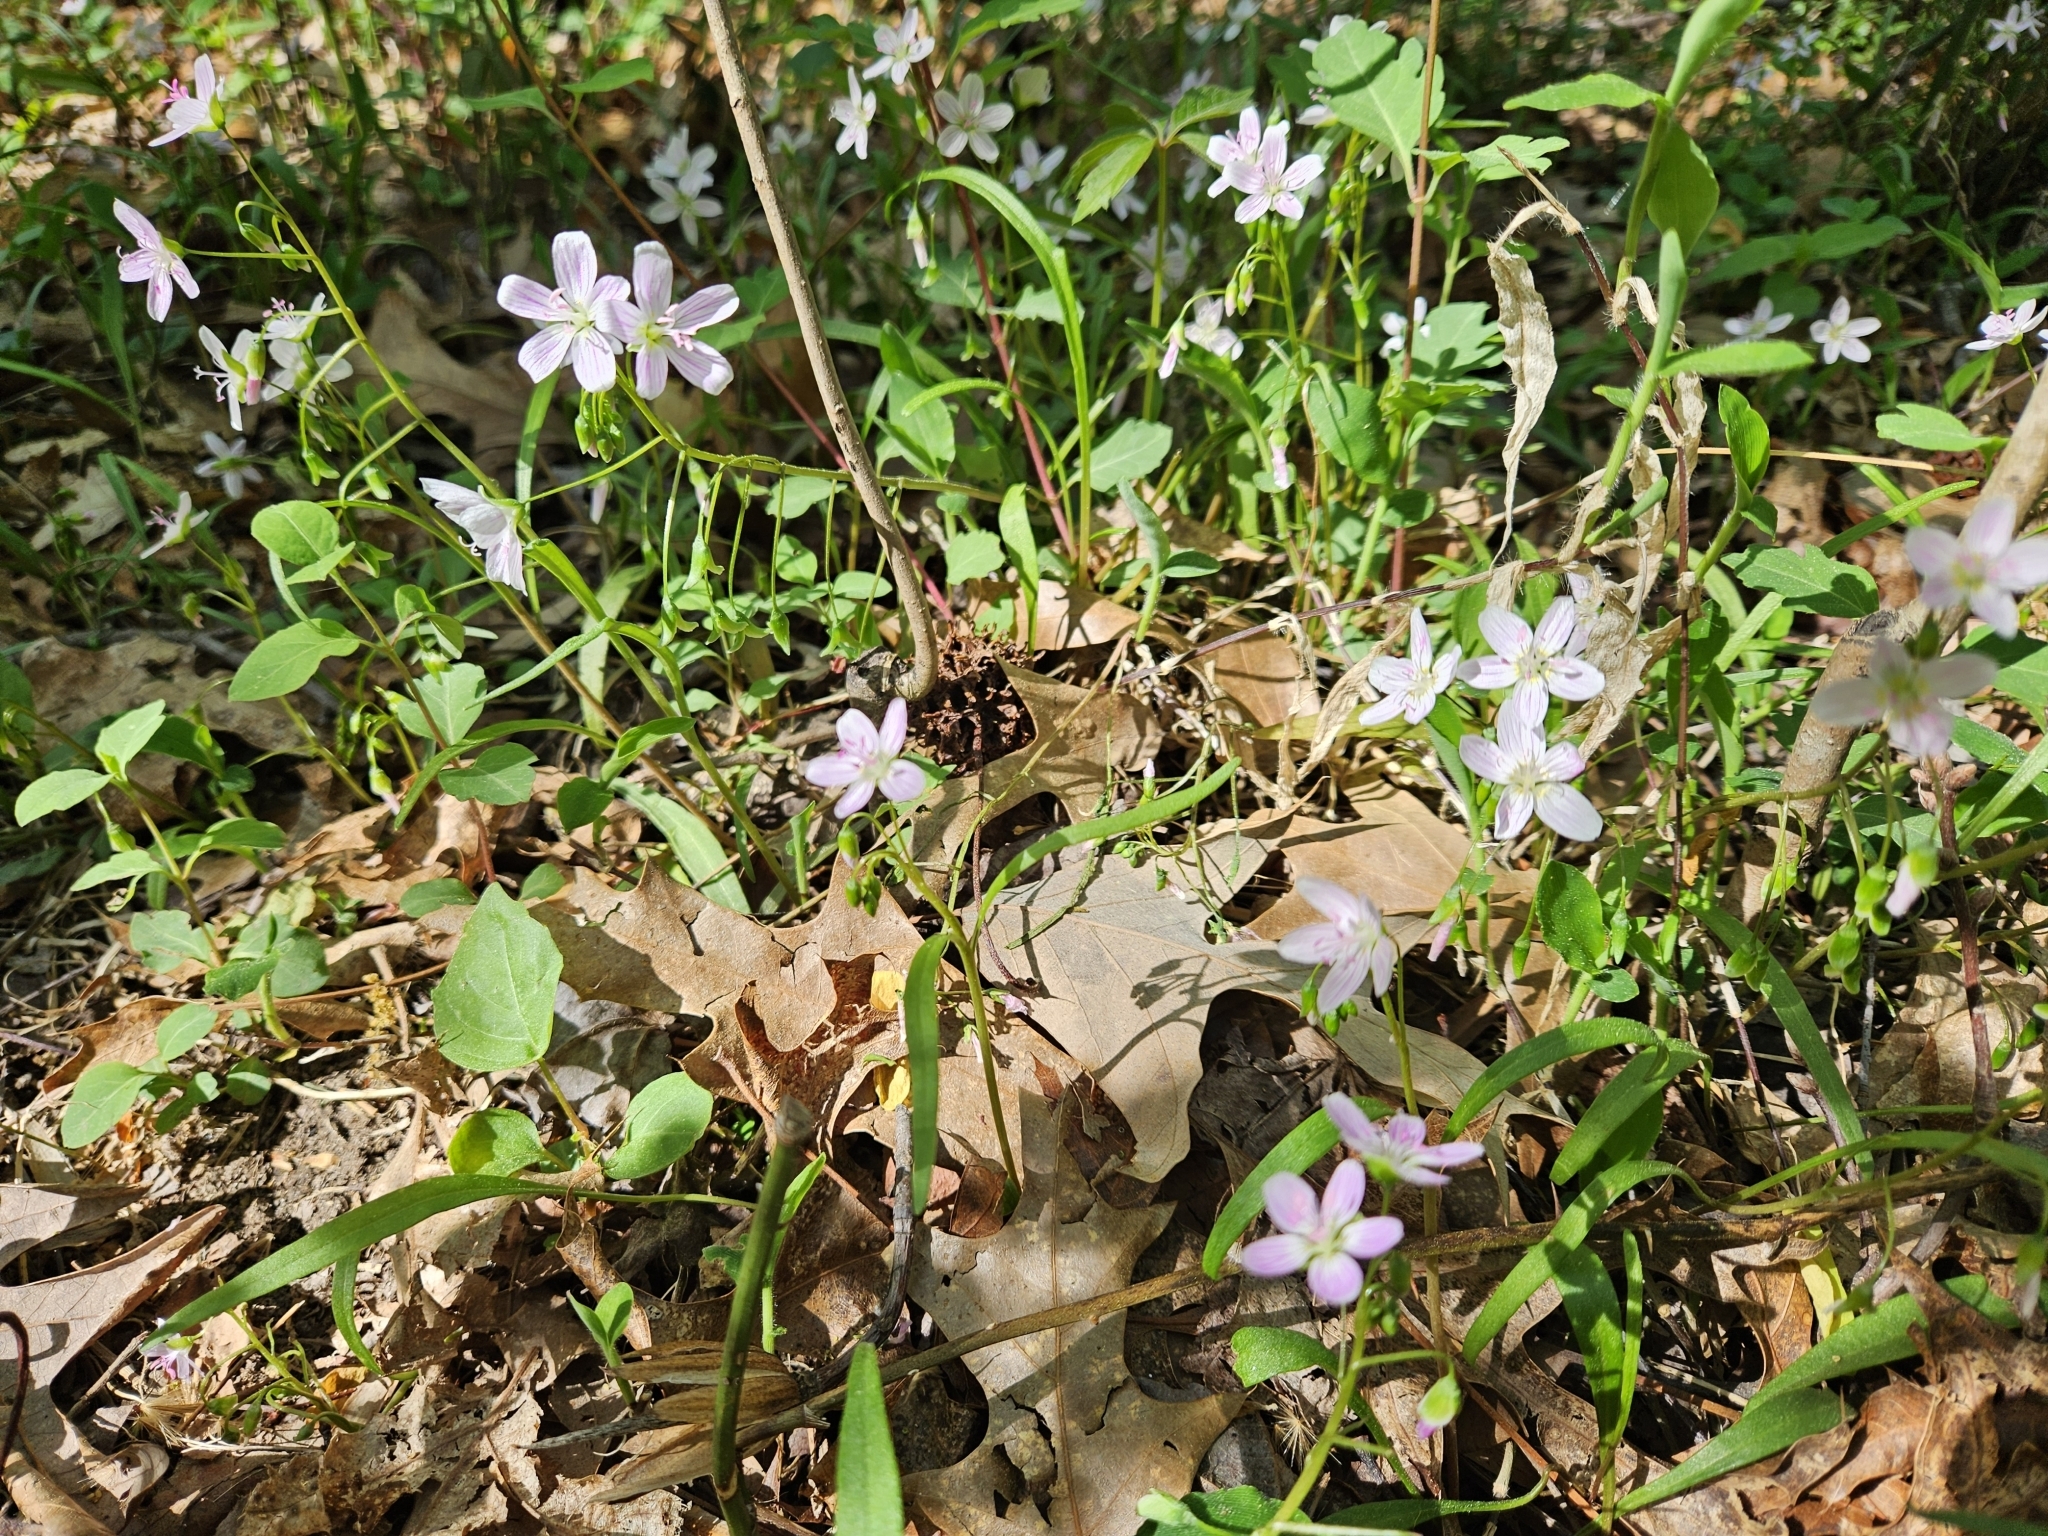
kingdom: Plantae
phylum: Tracheophyta
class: Magnoliopsida
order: Caryophyllales
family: Montiaceae
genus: Claytonia
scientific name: Claytonia virginica
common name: Virginia springbeauty
